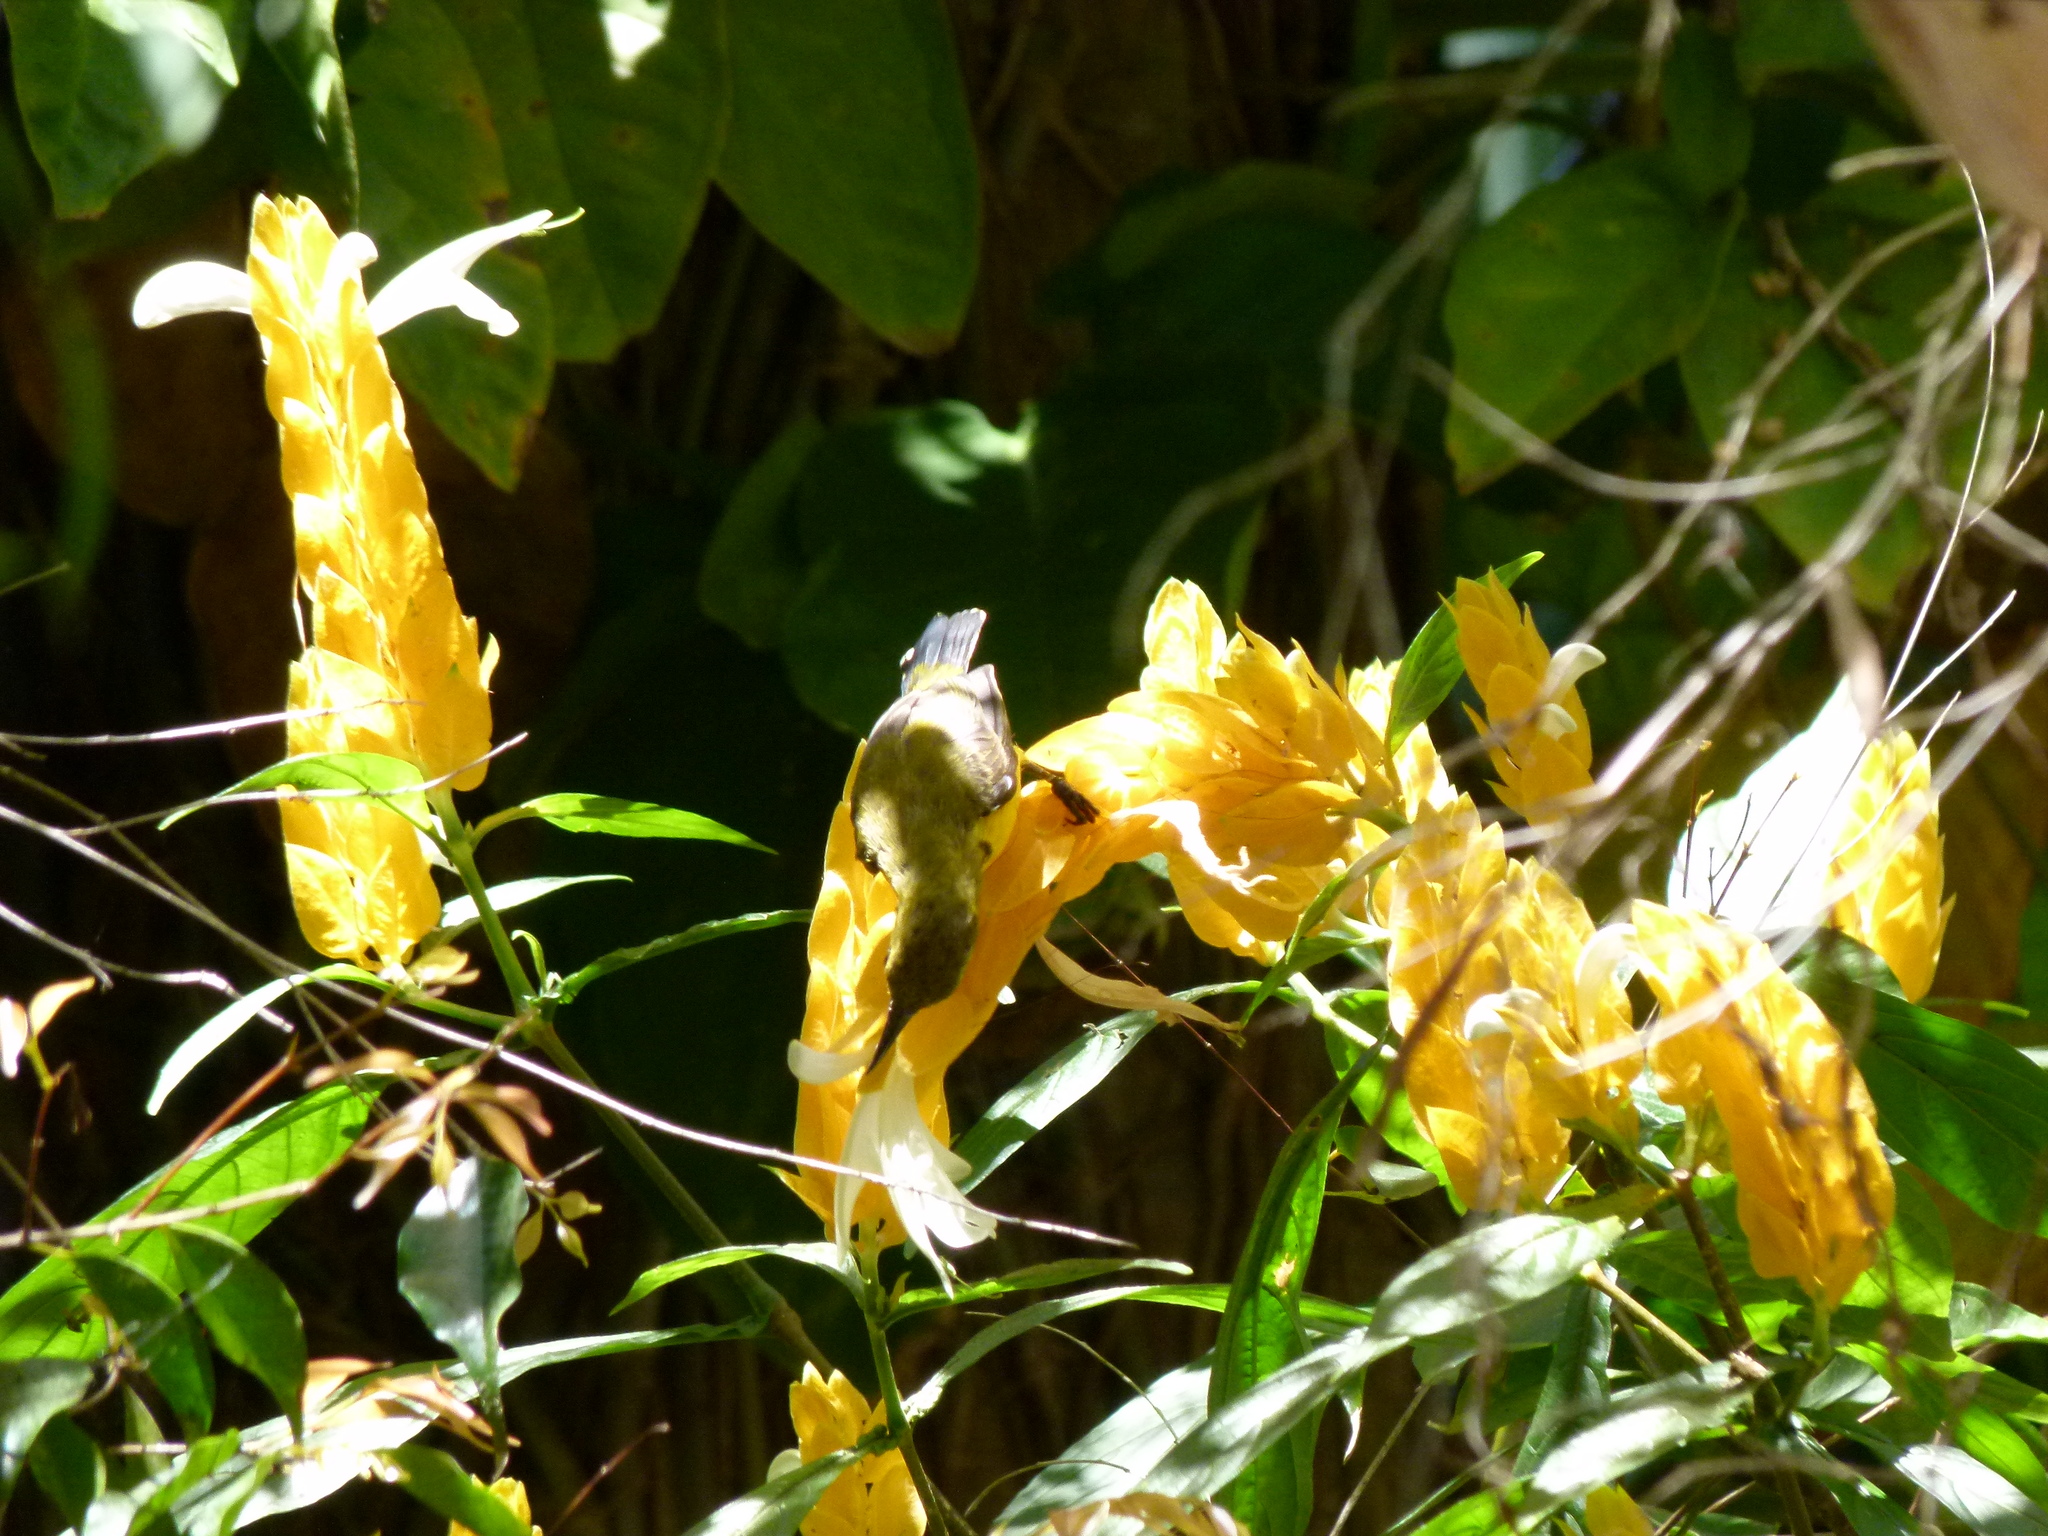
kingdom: Animalia
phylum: Chordata
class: Aves
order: Passeriformes
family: Nectariniidae
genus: Cinnyris
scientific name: Cinnyris
